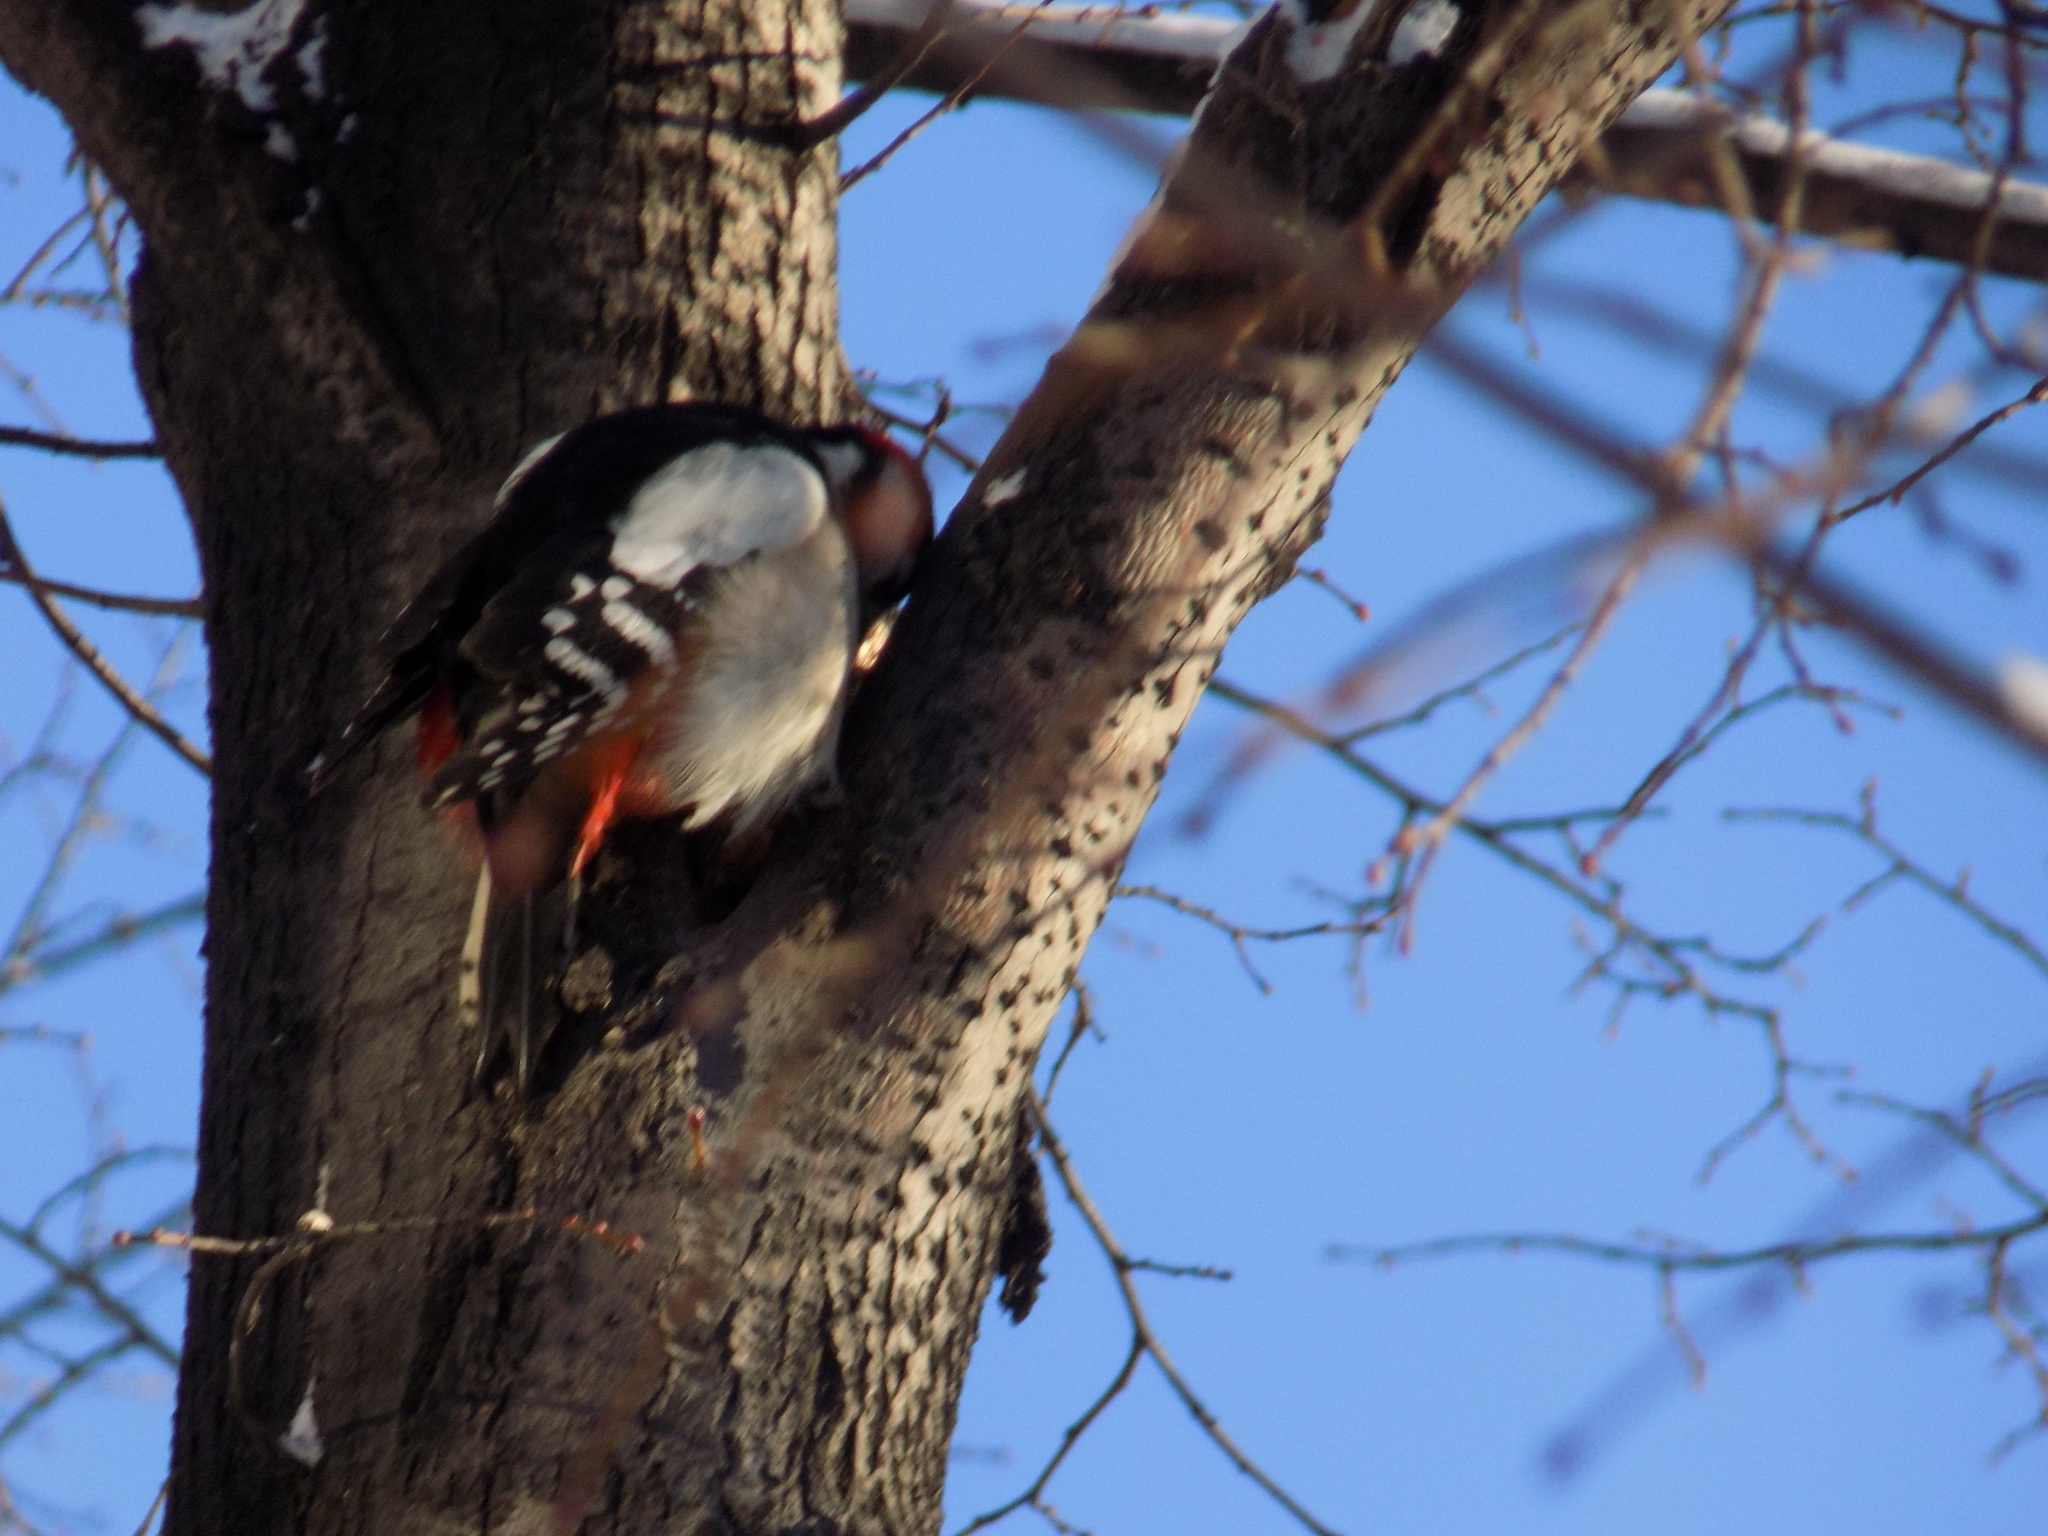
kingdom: Animalia
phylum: Chordata
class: Aves
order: Piciformes
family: Picidae
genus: Dendrocopos
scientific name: Dendrocopos major
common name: Great spotted woodpecker
